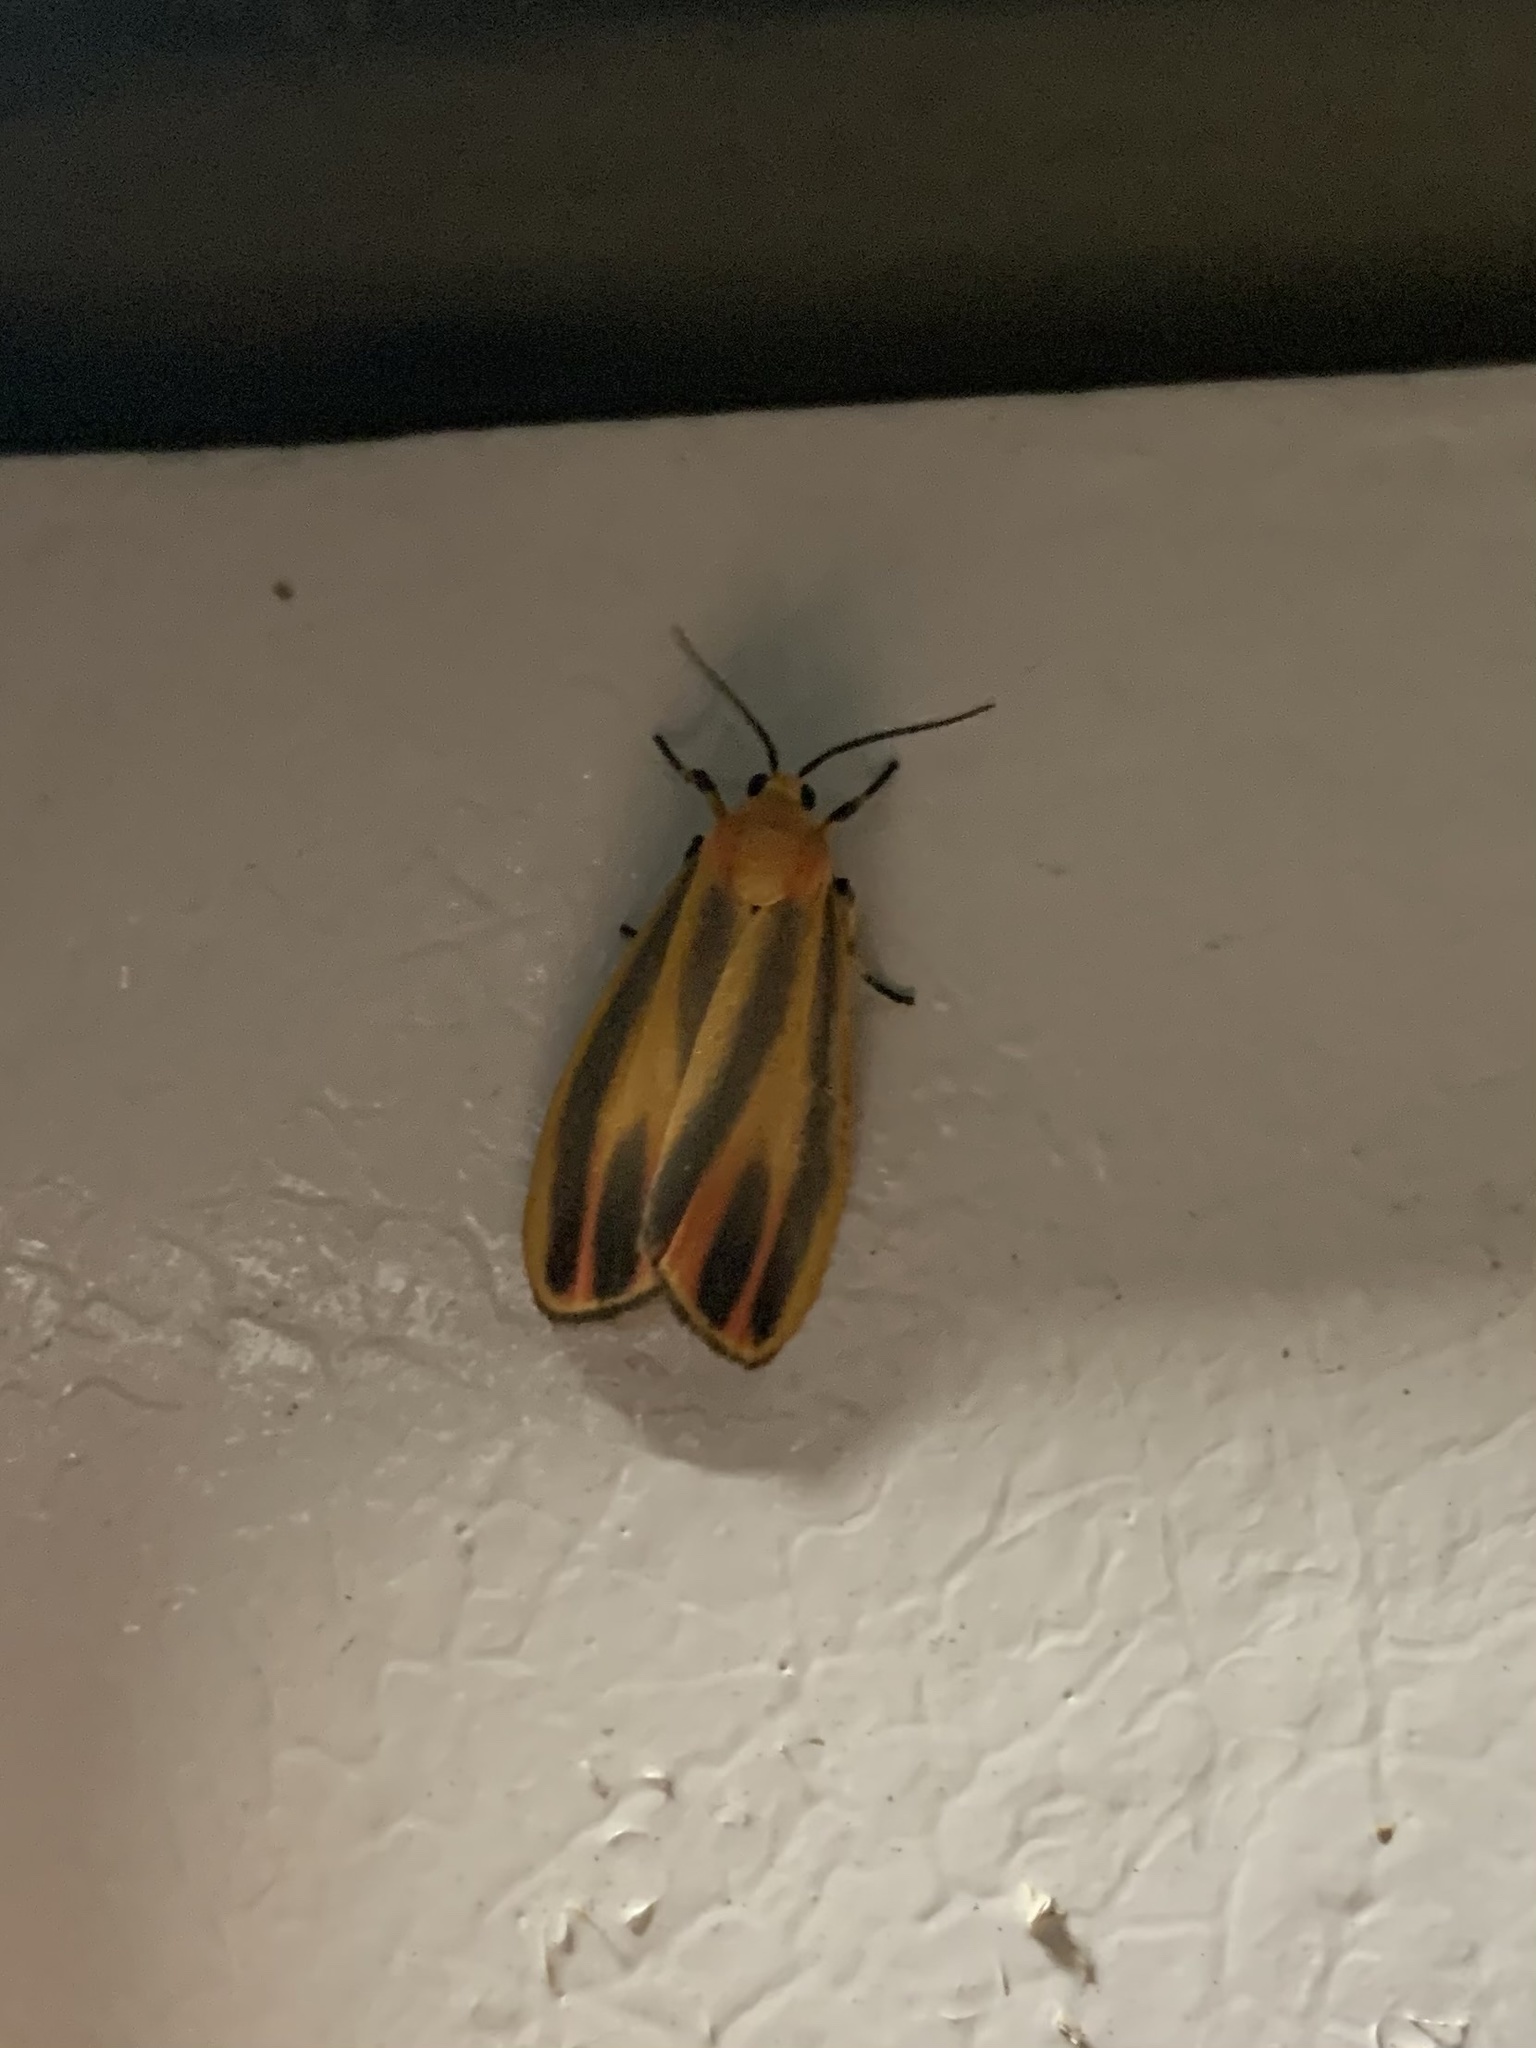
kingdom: Animalia
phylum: Arthropoda
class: Insecta
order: Lepidoptera
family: Erebidae
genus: Hypoprepia
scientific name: Hypoprepia fucosa
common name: Painted lichen moth
